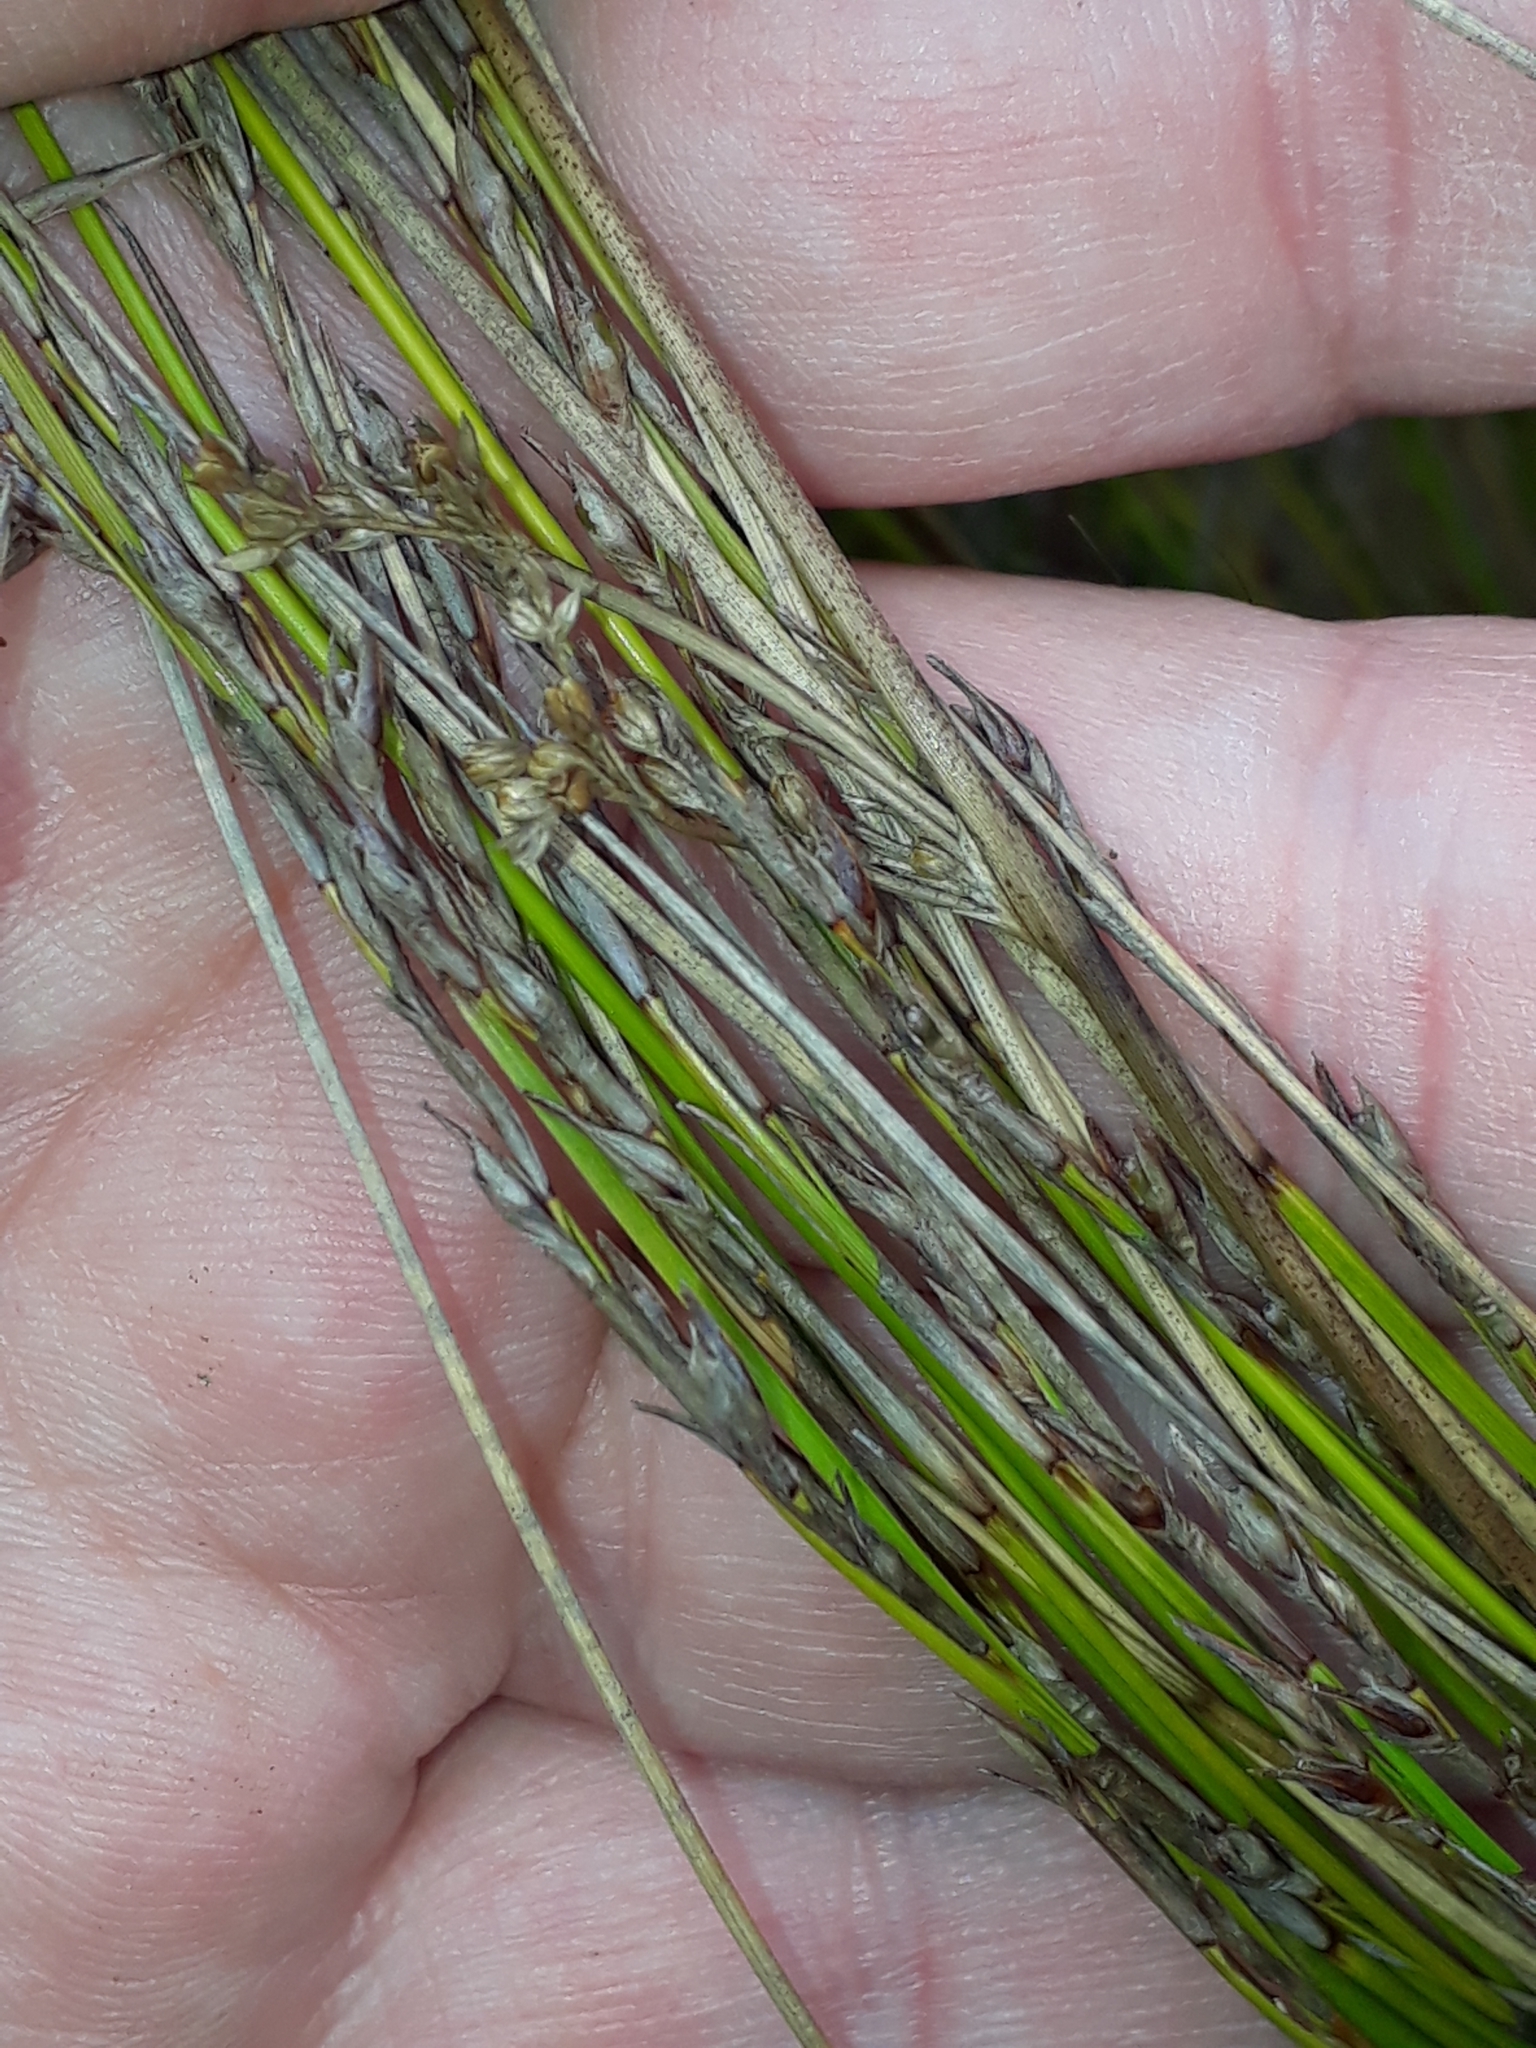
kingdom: Plantae
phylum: Tracheophyta
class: Liliopsida
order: Poales
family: Cyperaceae
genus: Machaerina
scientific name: Machaerina tenax
